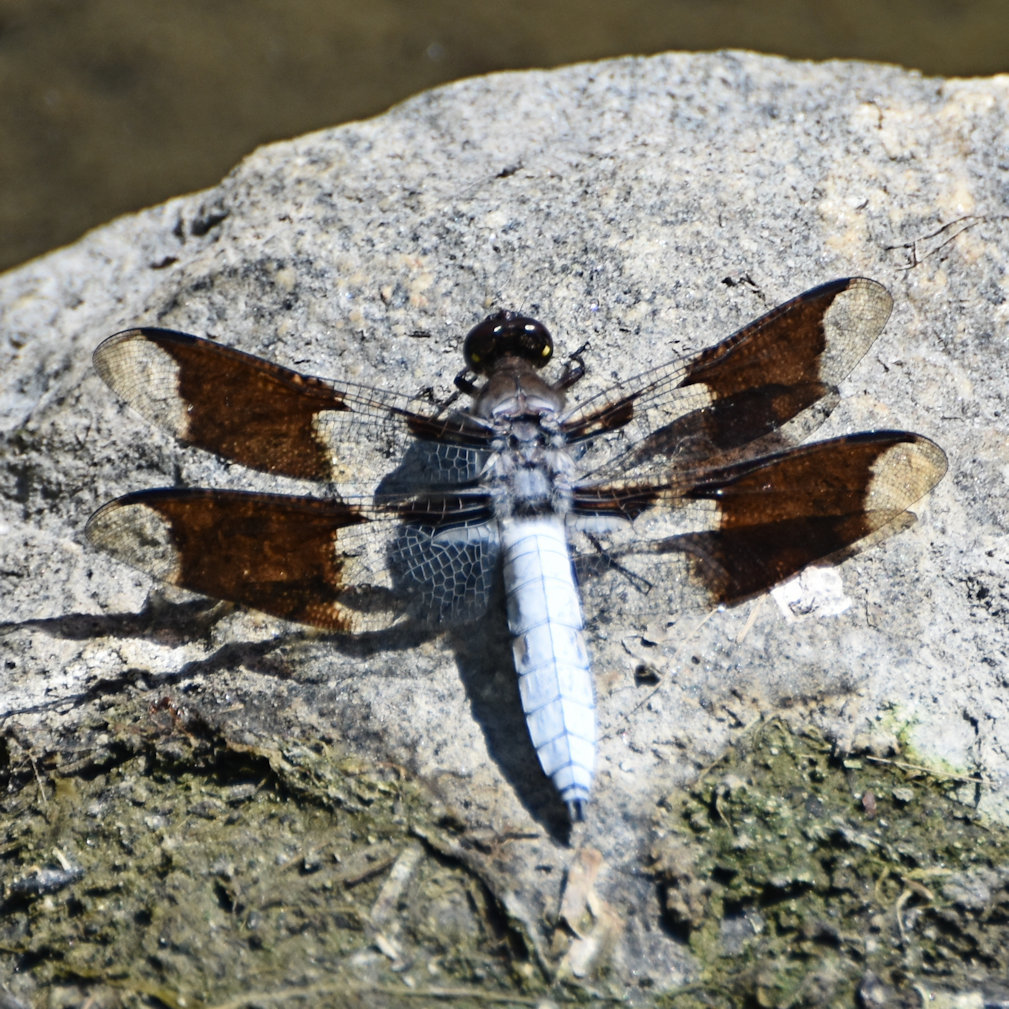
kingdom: Animalia
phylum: Arthropoda
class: Insecta
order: Odonata
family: Libellulidae
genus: Plathemis
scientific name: Plathemis lydia
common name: Common whitetail
